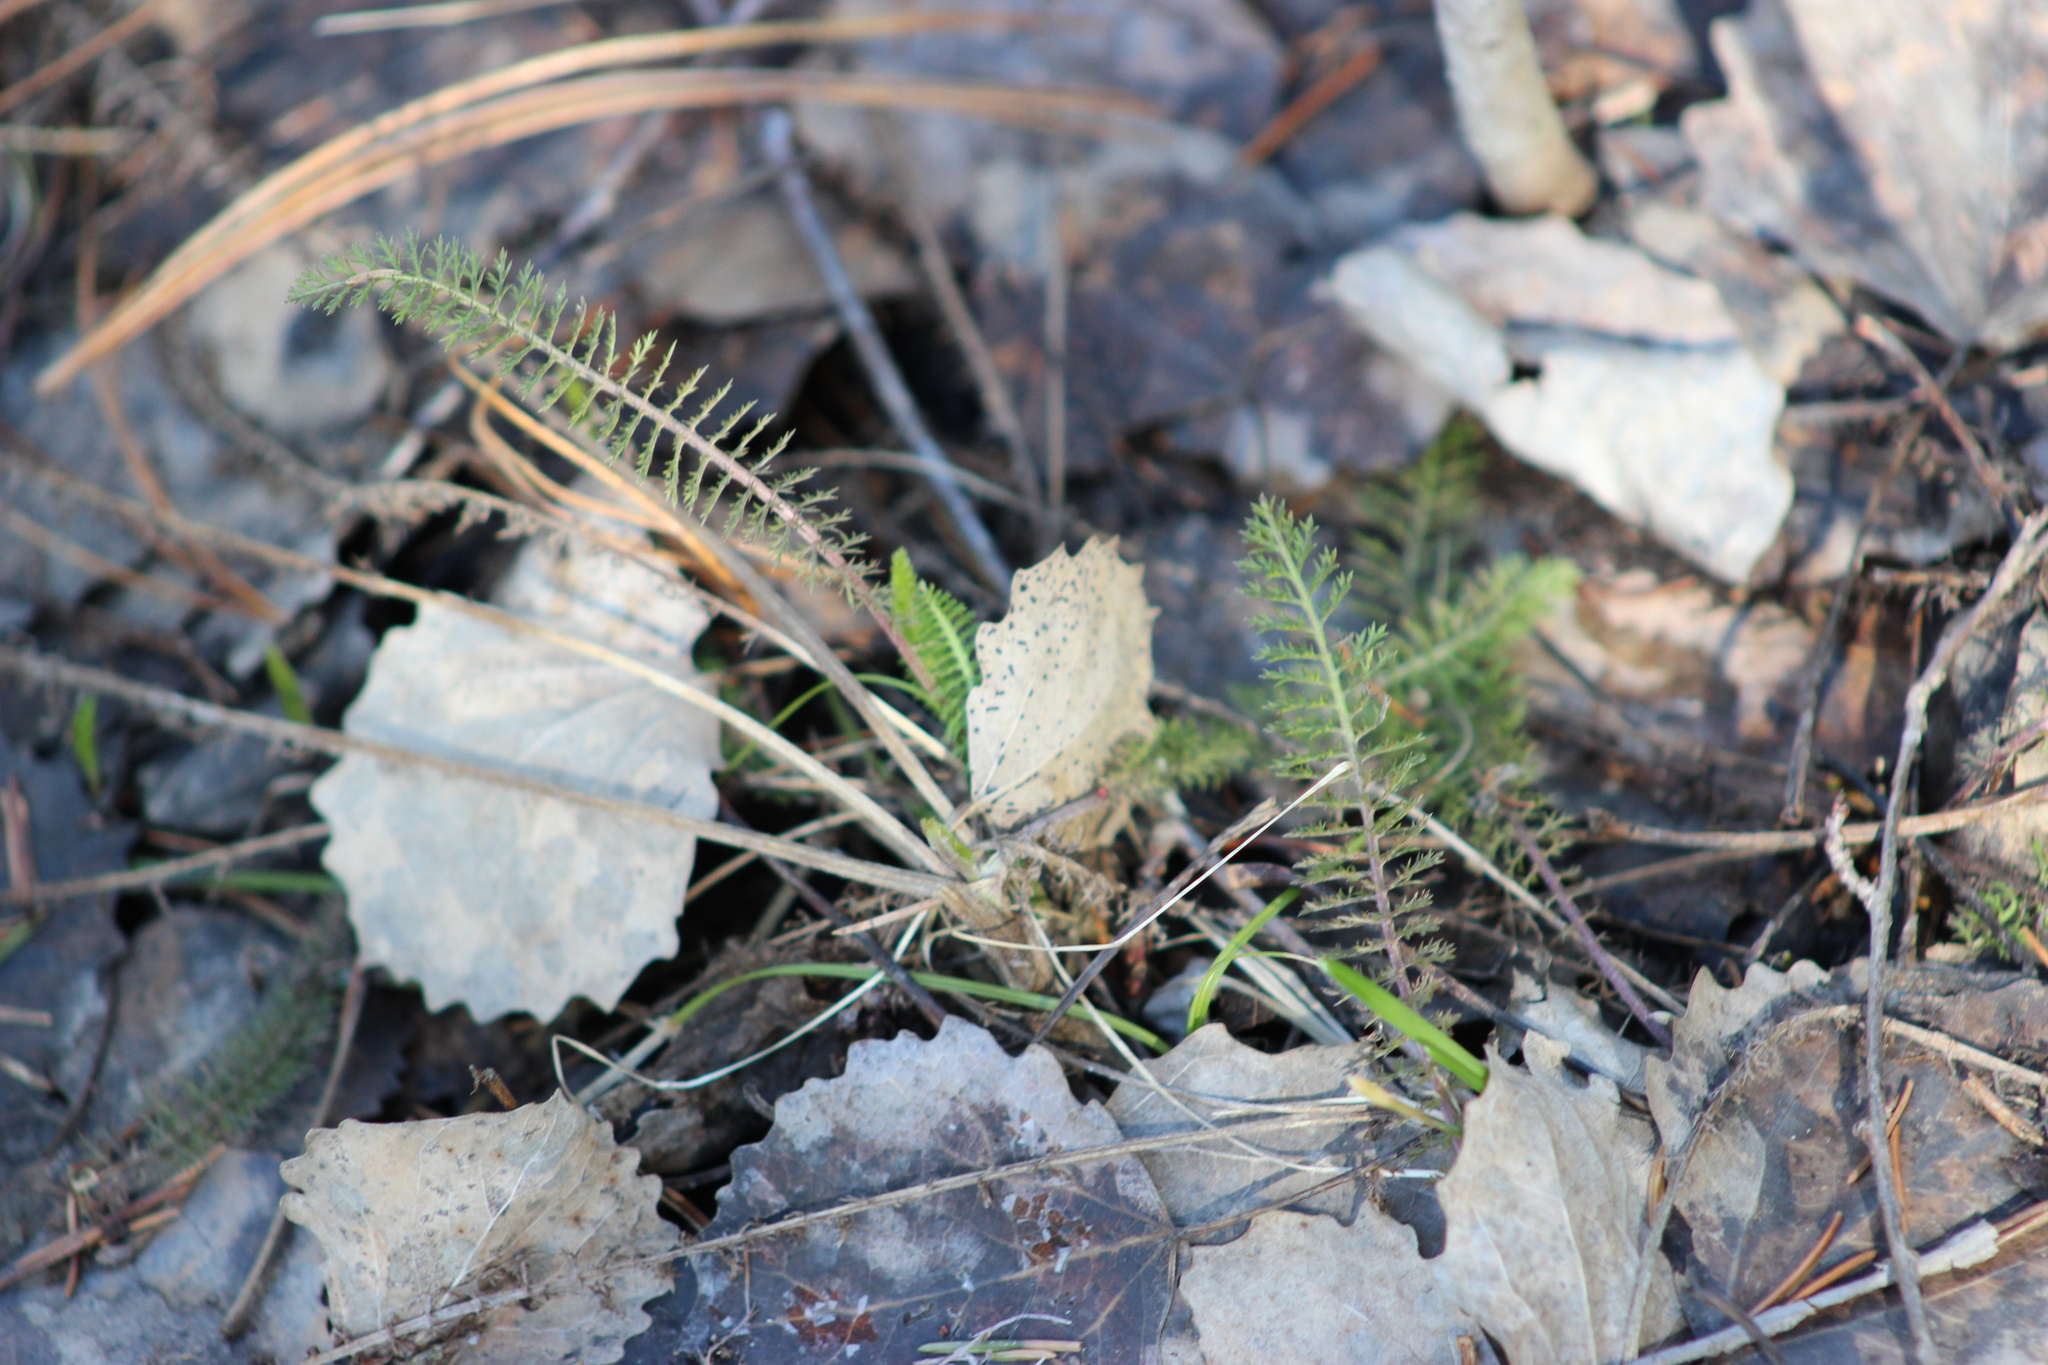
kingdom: Plantae
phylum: Tracheophyta
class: Magnoliopsida
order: Asterales
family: Asteraceae
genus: Achillea
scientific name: Achillea millefolium
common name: Yarrow
